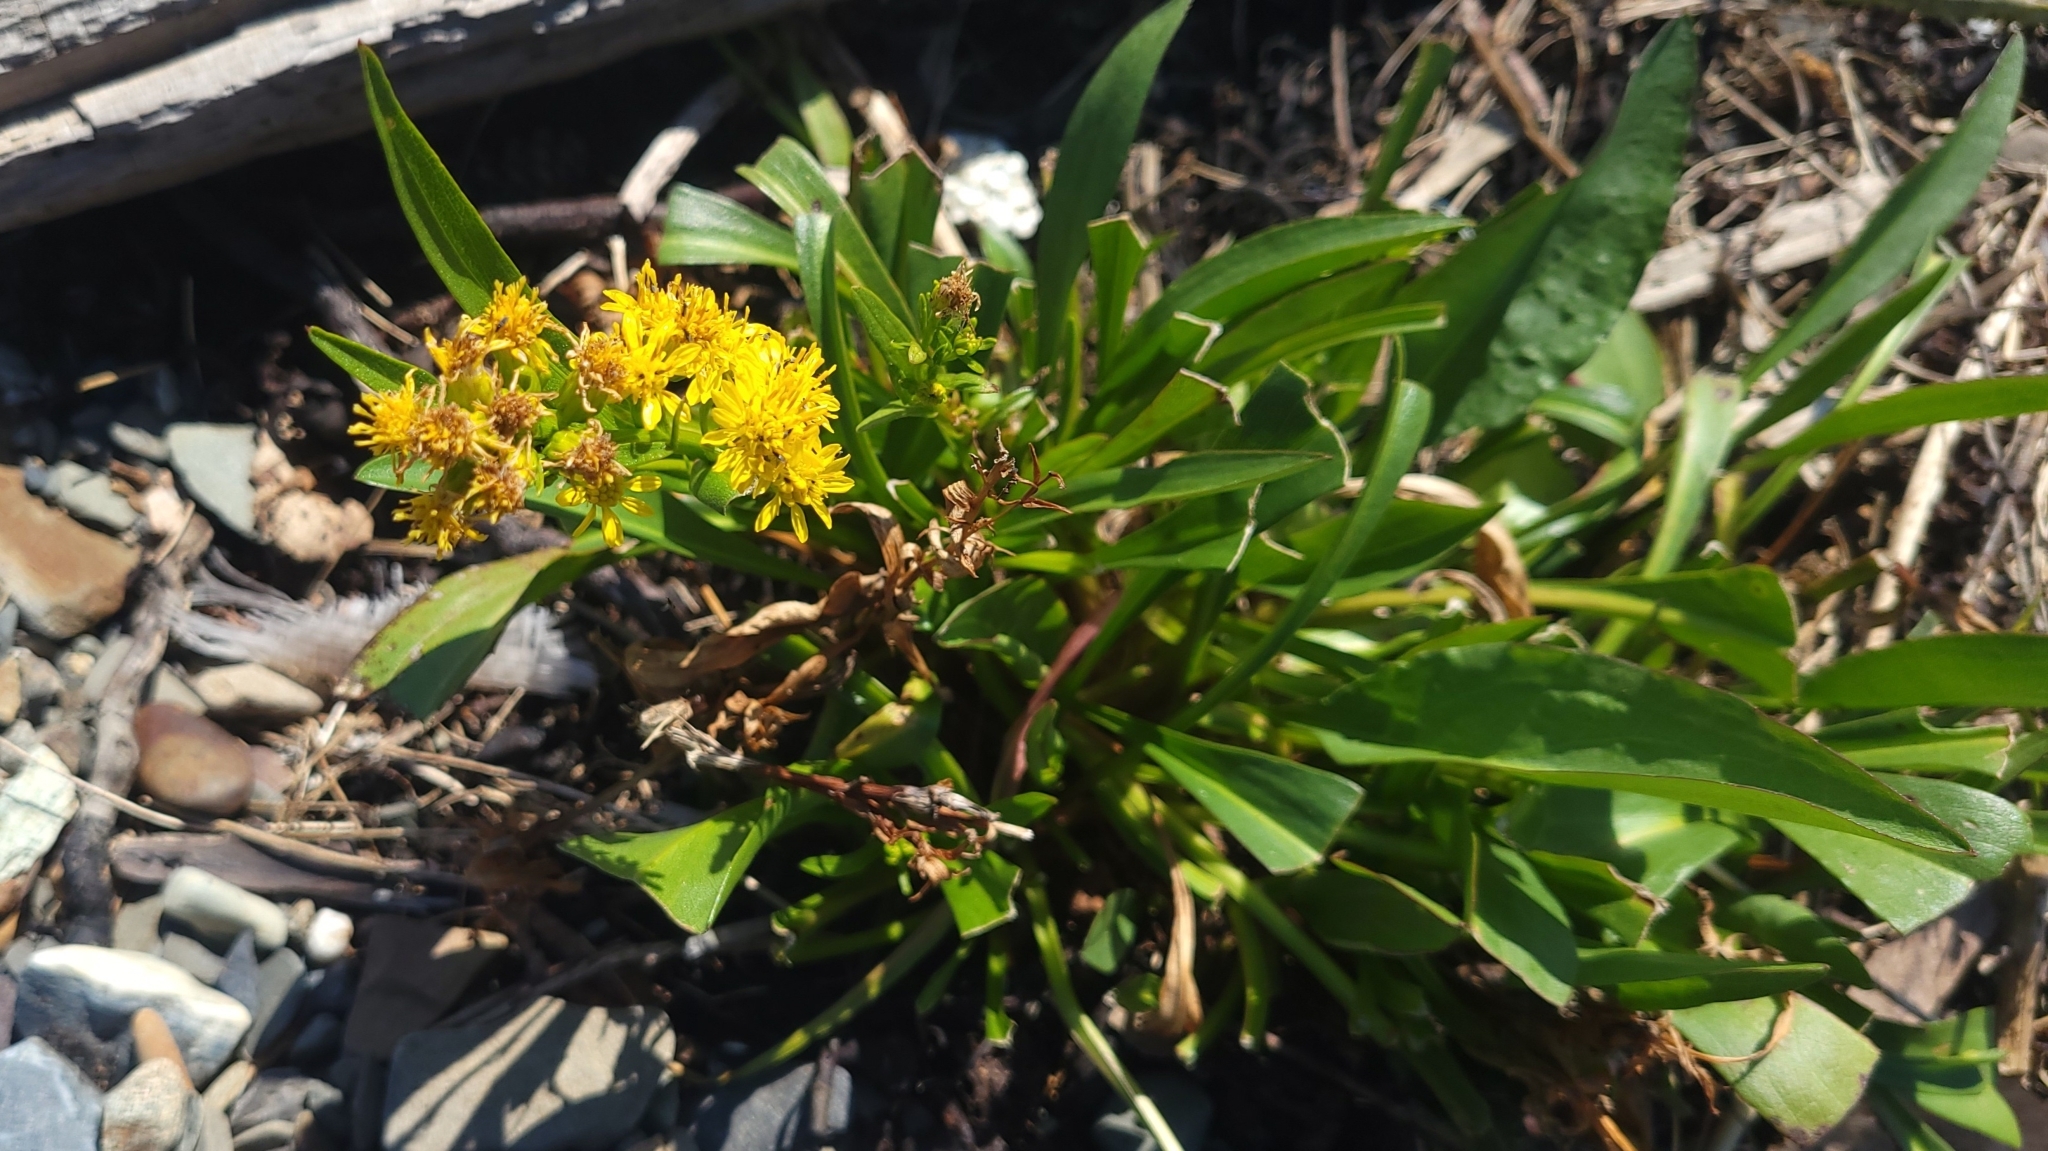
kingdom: Plantae
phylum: Tracheophyta
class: Magnoliopsida
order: Asterales
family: Asteraceae
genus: Solidago
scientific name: Solidago sempervirens
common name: Salt-marsh goldenrod
